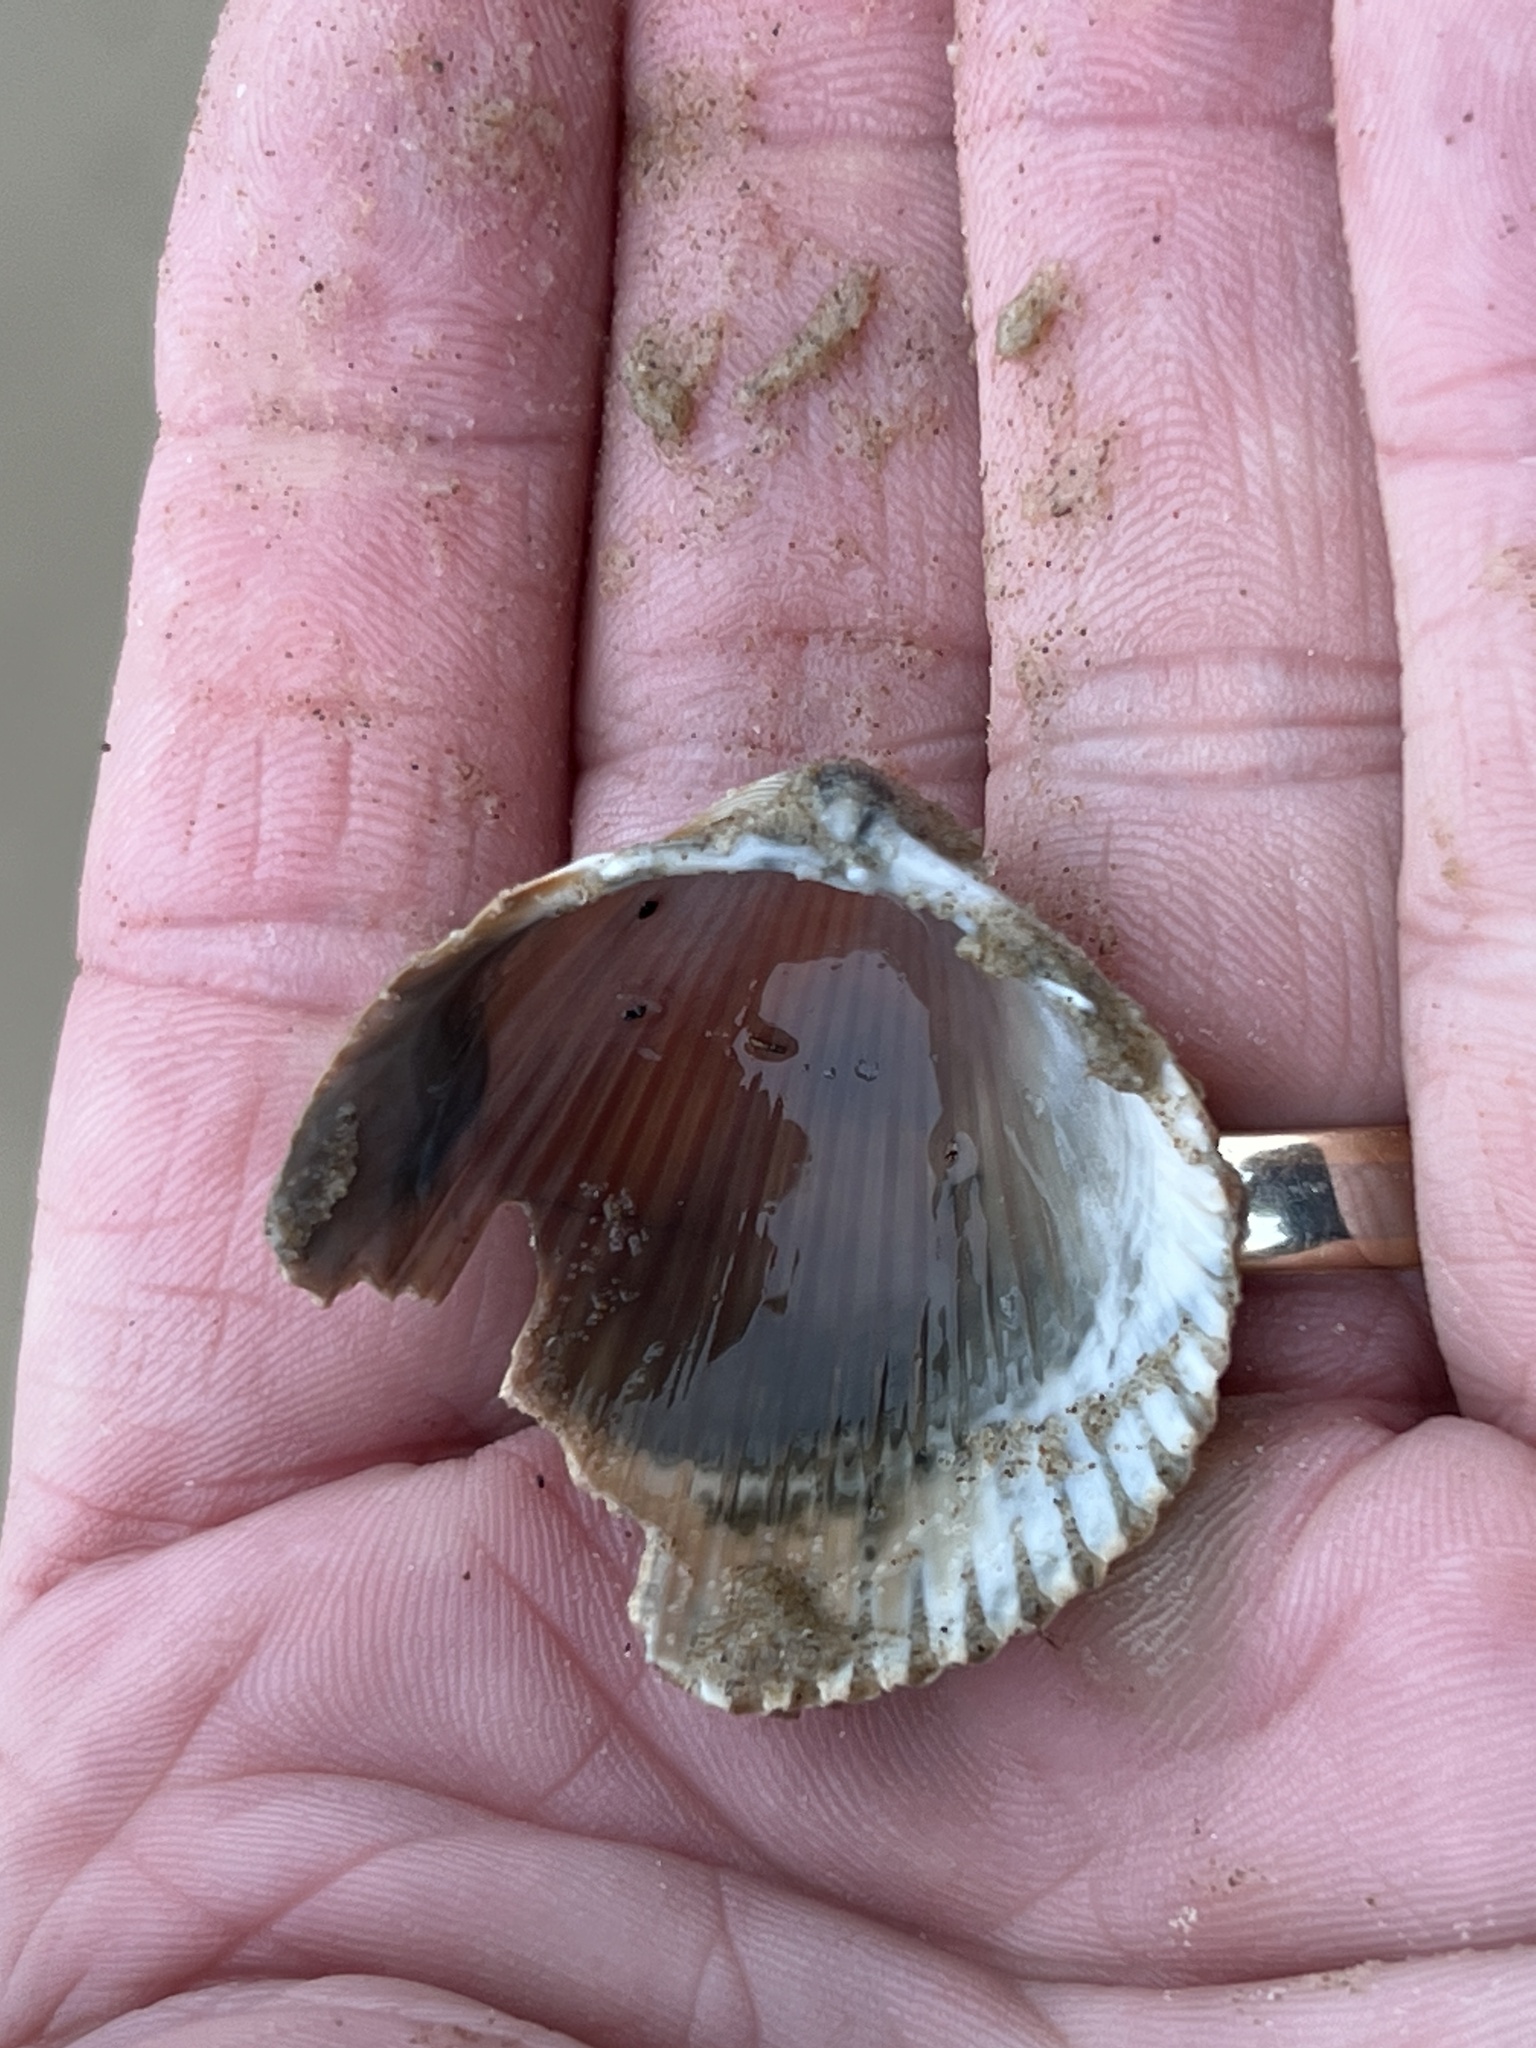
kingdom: Animalia
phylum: Mollusca
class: Bivalvia
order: Cardiida
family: Cardiidae
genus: Dinocardium
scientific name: Dinocardium robustum
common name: Atlantic giant cockle
